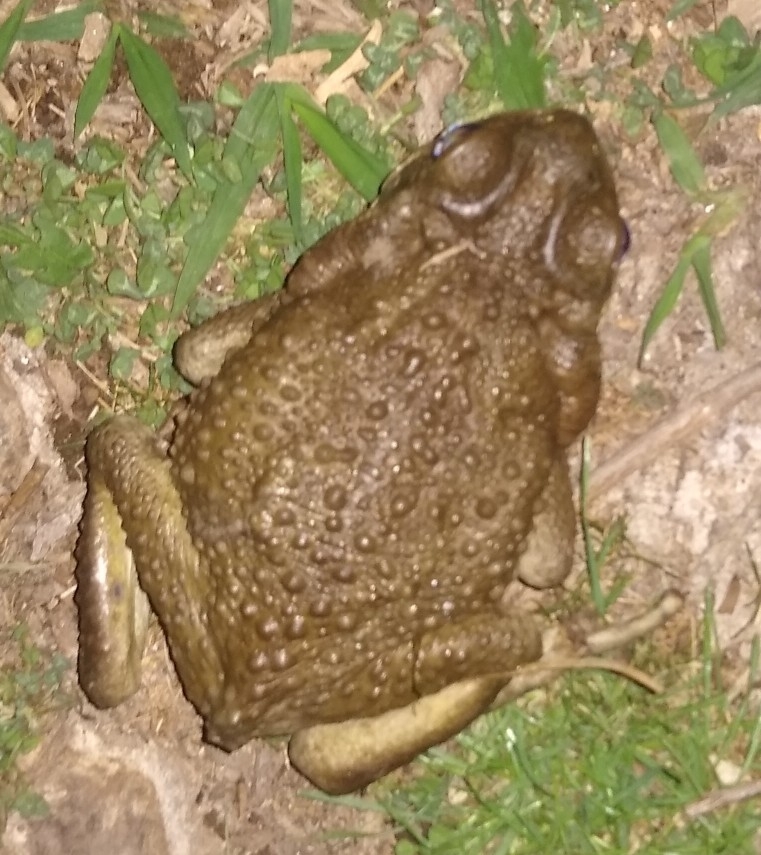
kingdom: Animalia
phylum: Chordata
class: Amphibia
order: Anura
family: Bufonidae
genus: Rhinella
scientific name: Rhinella arenarum
